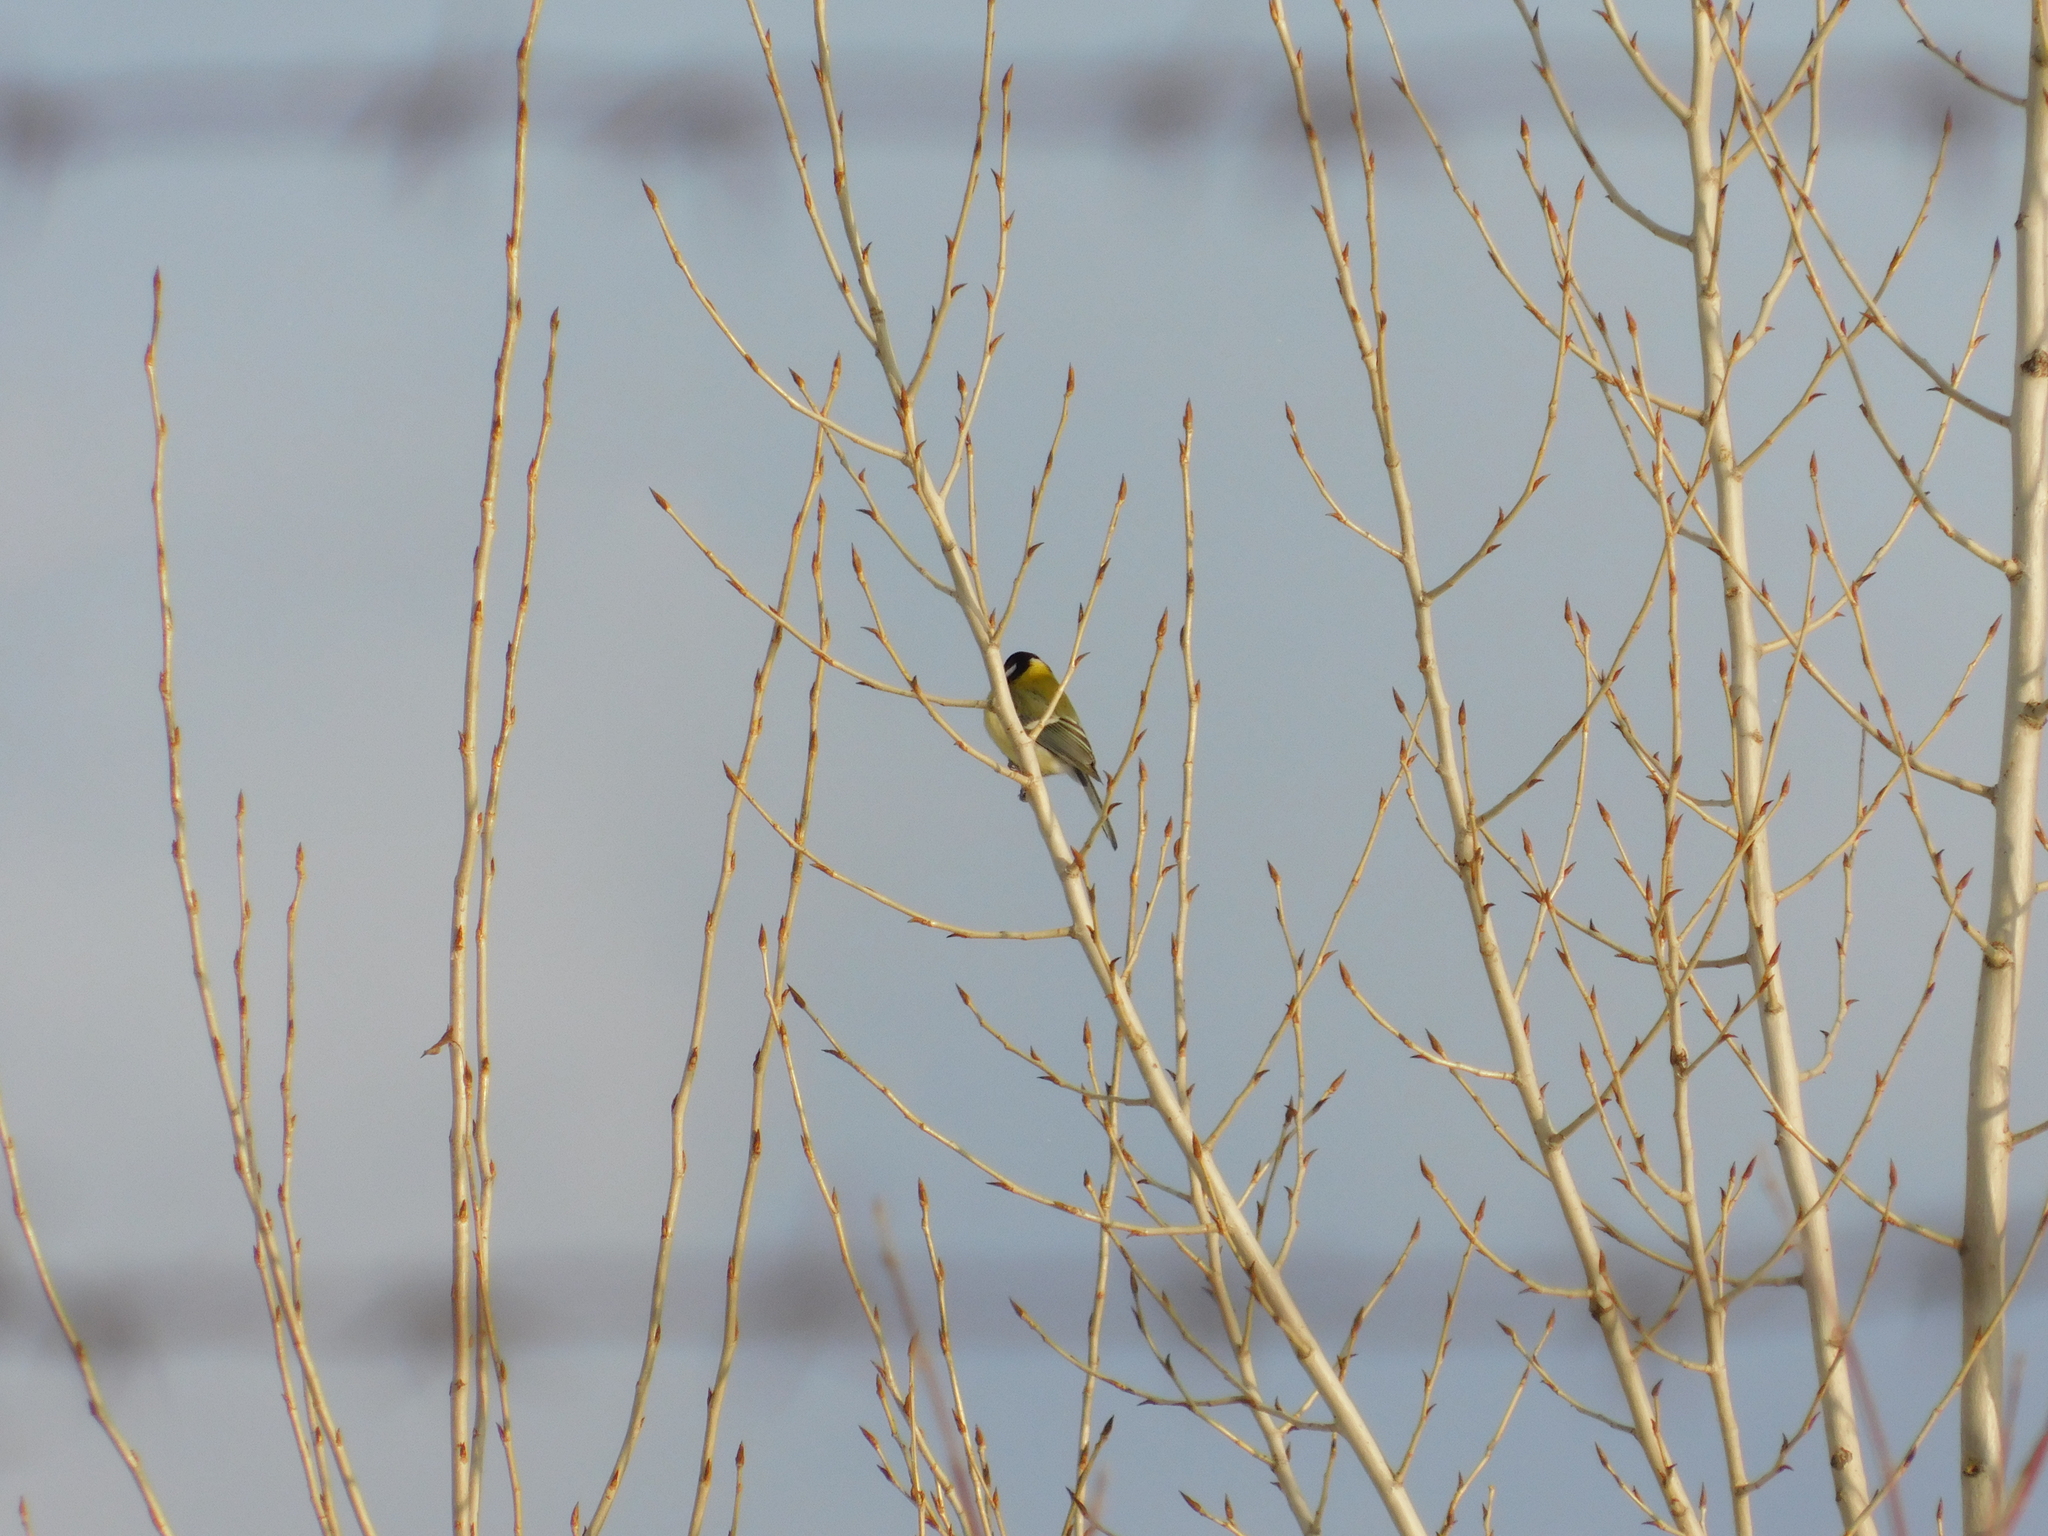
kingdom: Animalia
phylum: Chordata
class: Aves
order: Passeriformes
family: Paridae
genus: Parus
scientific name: Parus major
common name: Great tit
